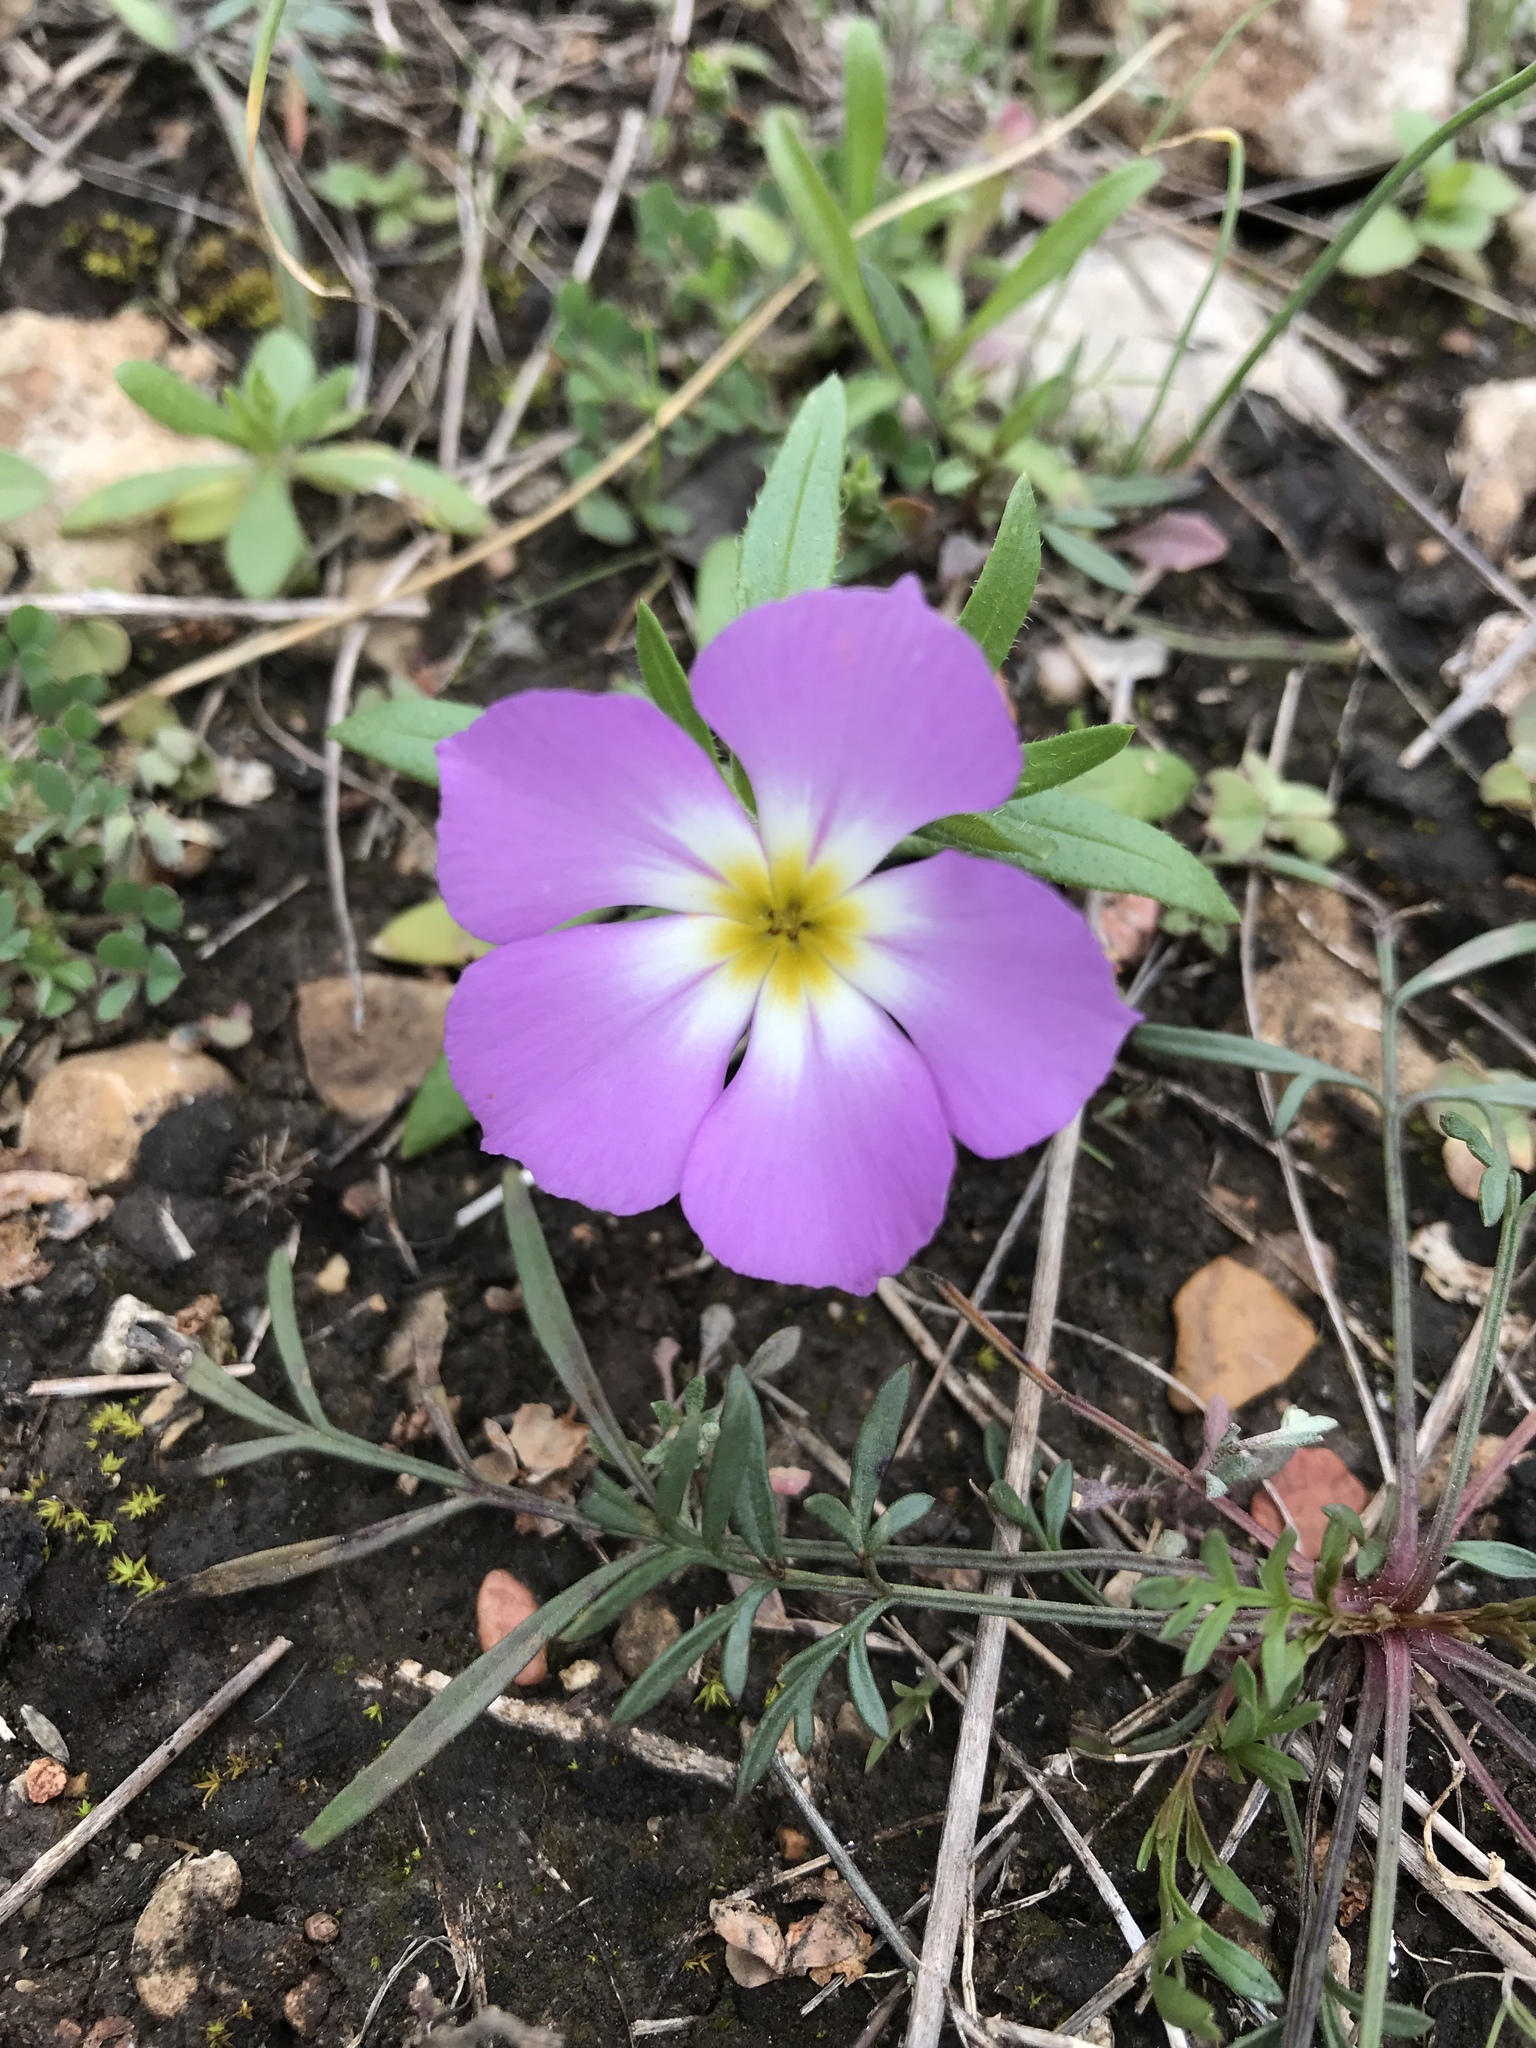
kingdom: Plantae
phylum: Tracheophyta
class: Magnoliopsida
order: Ericales
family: Polemoniaceae
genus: Phlox
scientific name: Phlox roemeriana
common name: Roemer's phlox
